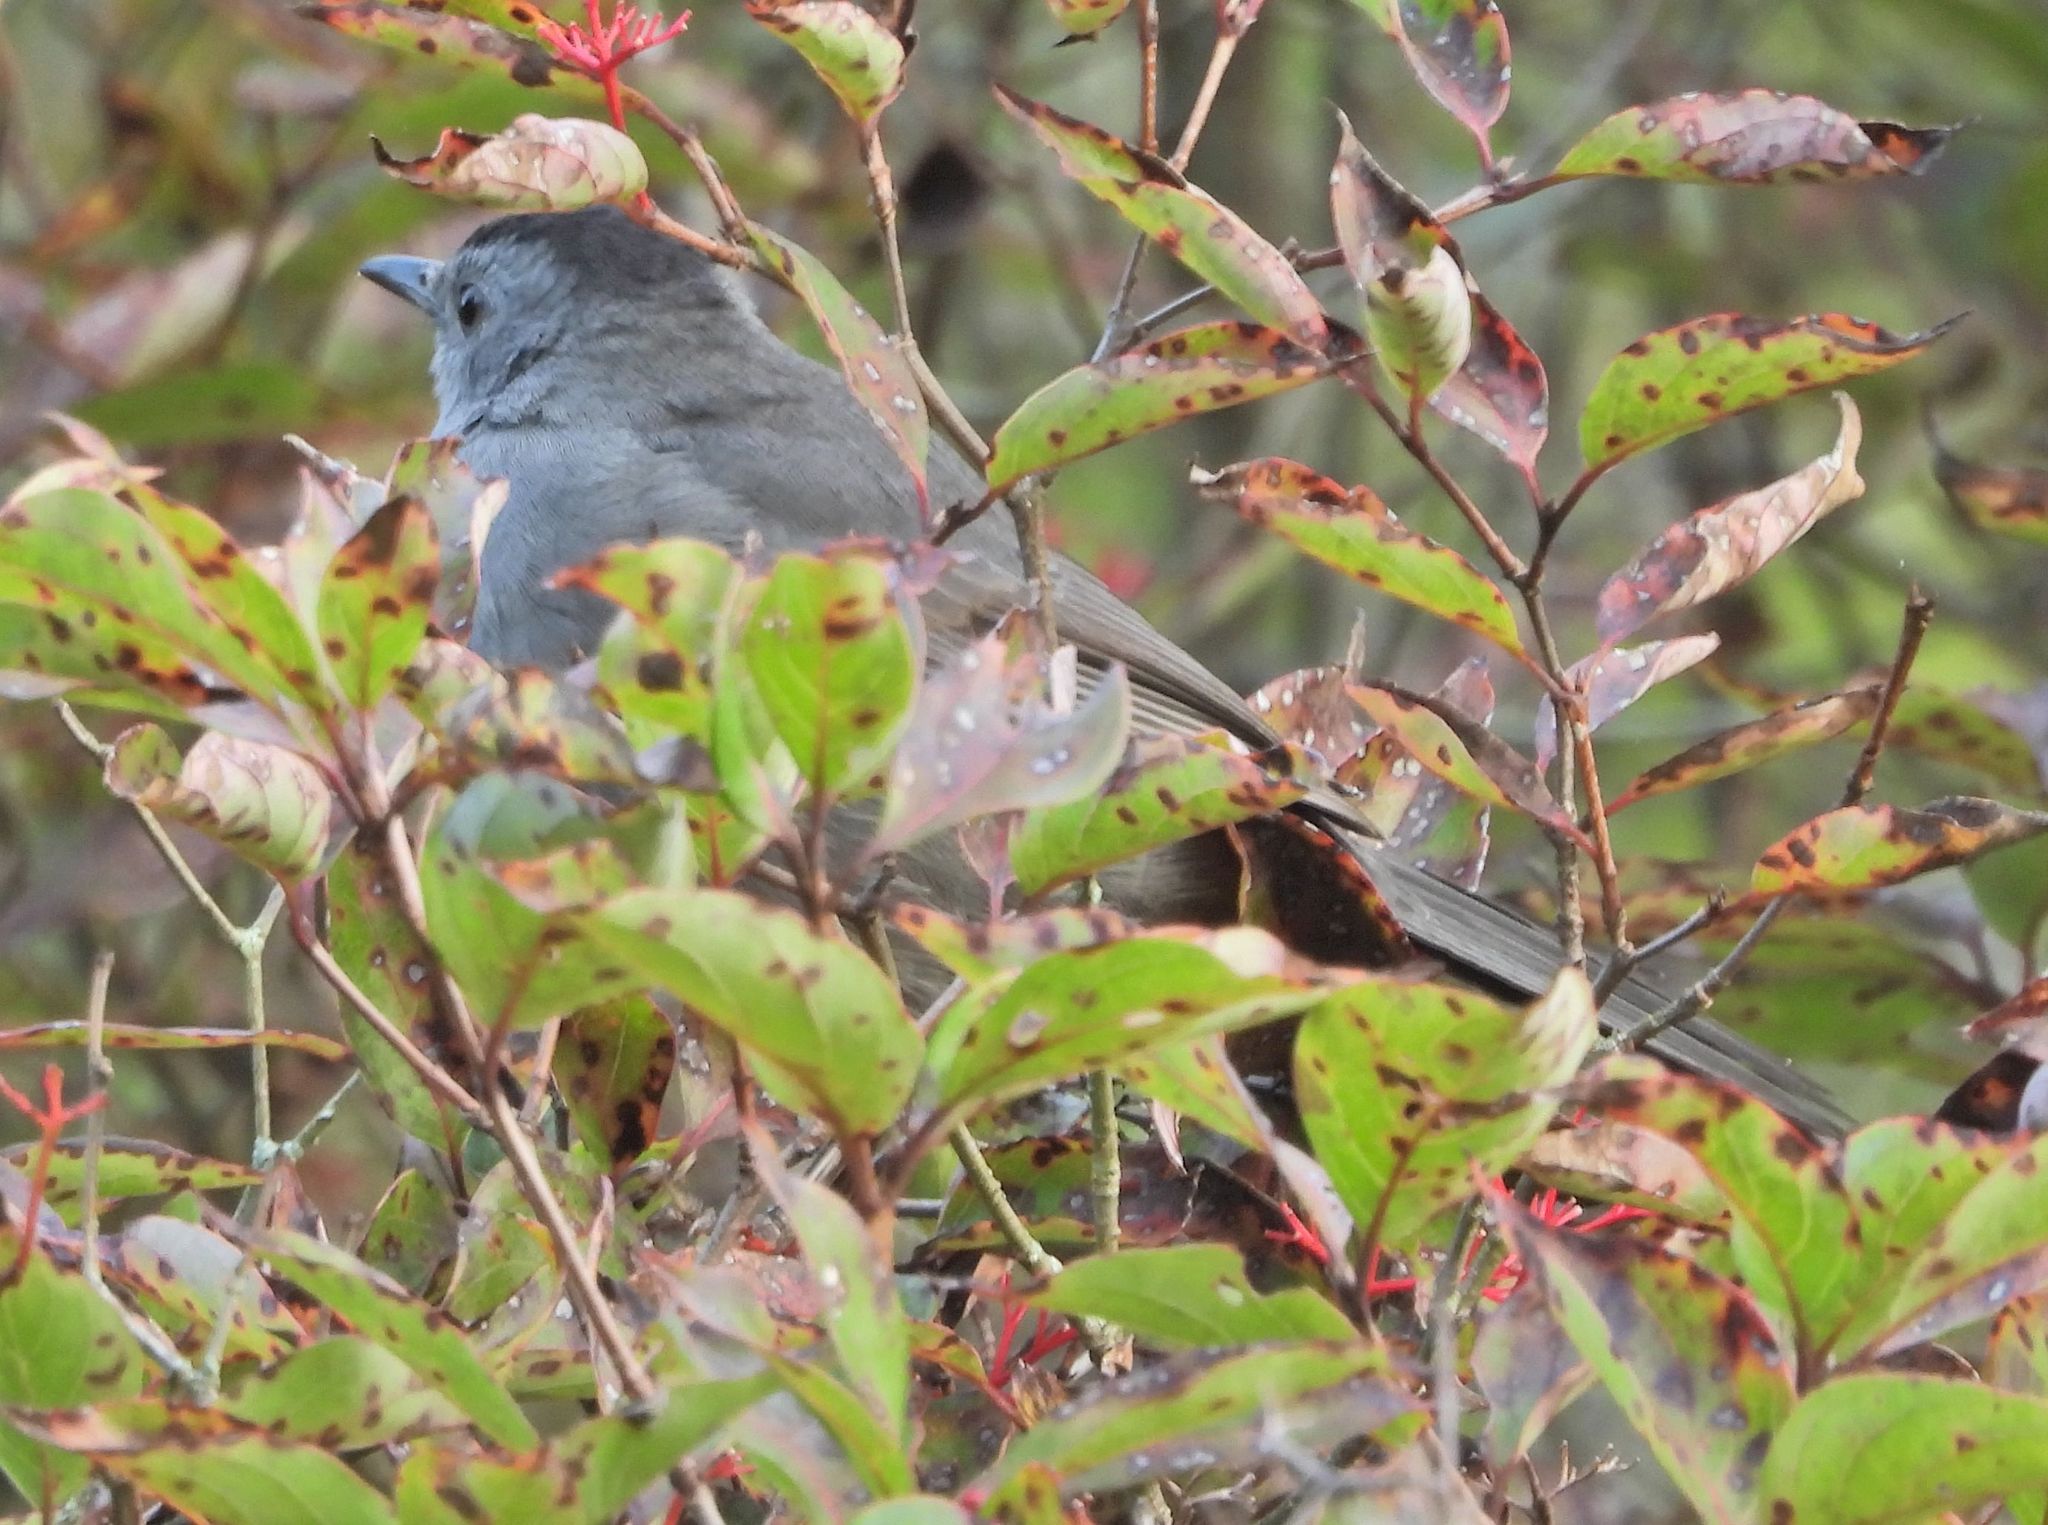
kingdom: Animalia
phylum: Chordata
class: Aves
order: Passeriformes
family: Mimidae
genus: Dumetella
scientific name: Dumetella carolinensis
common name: Gray catbird
